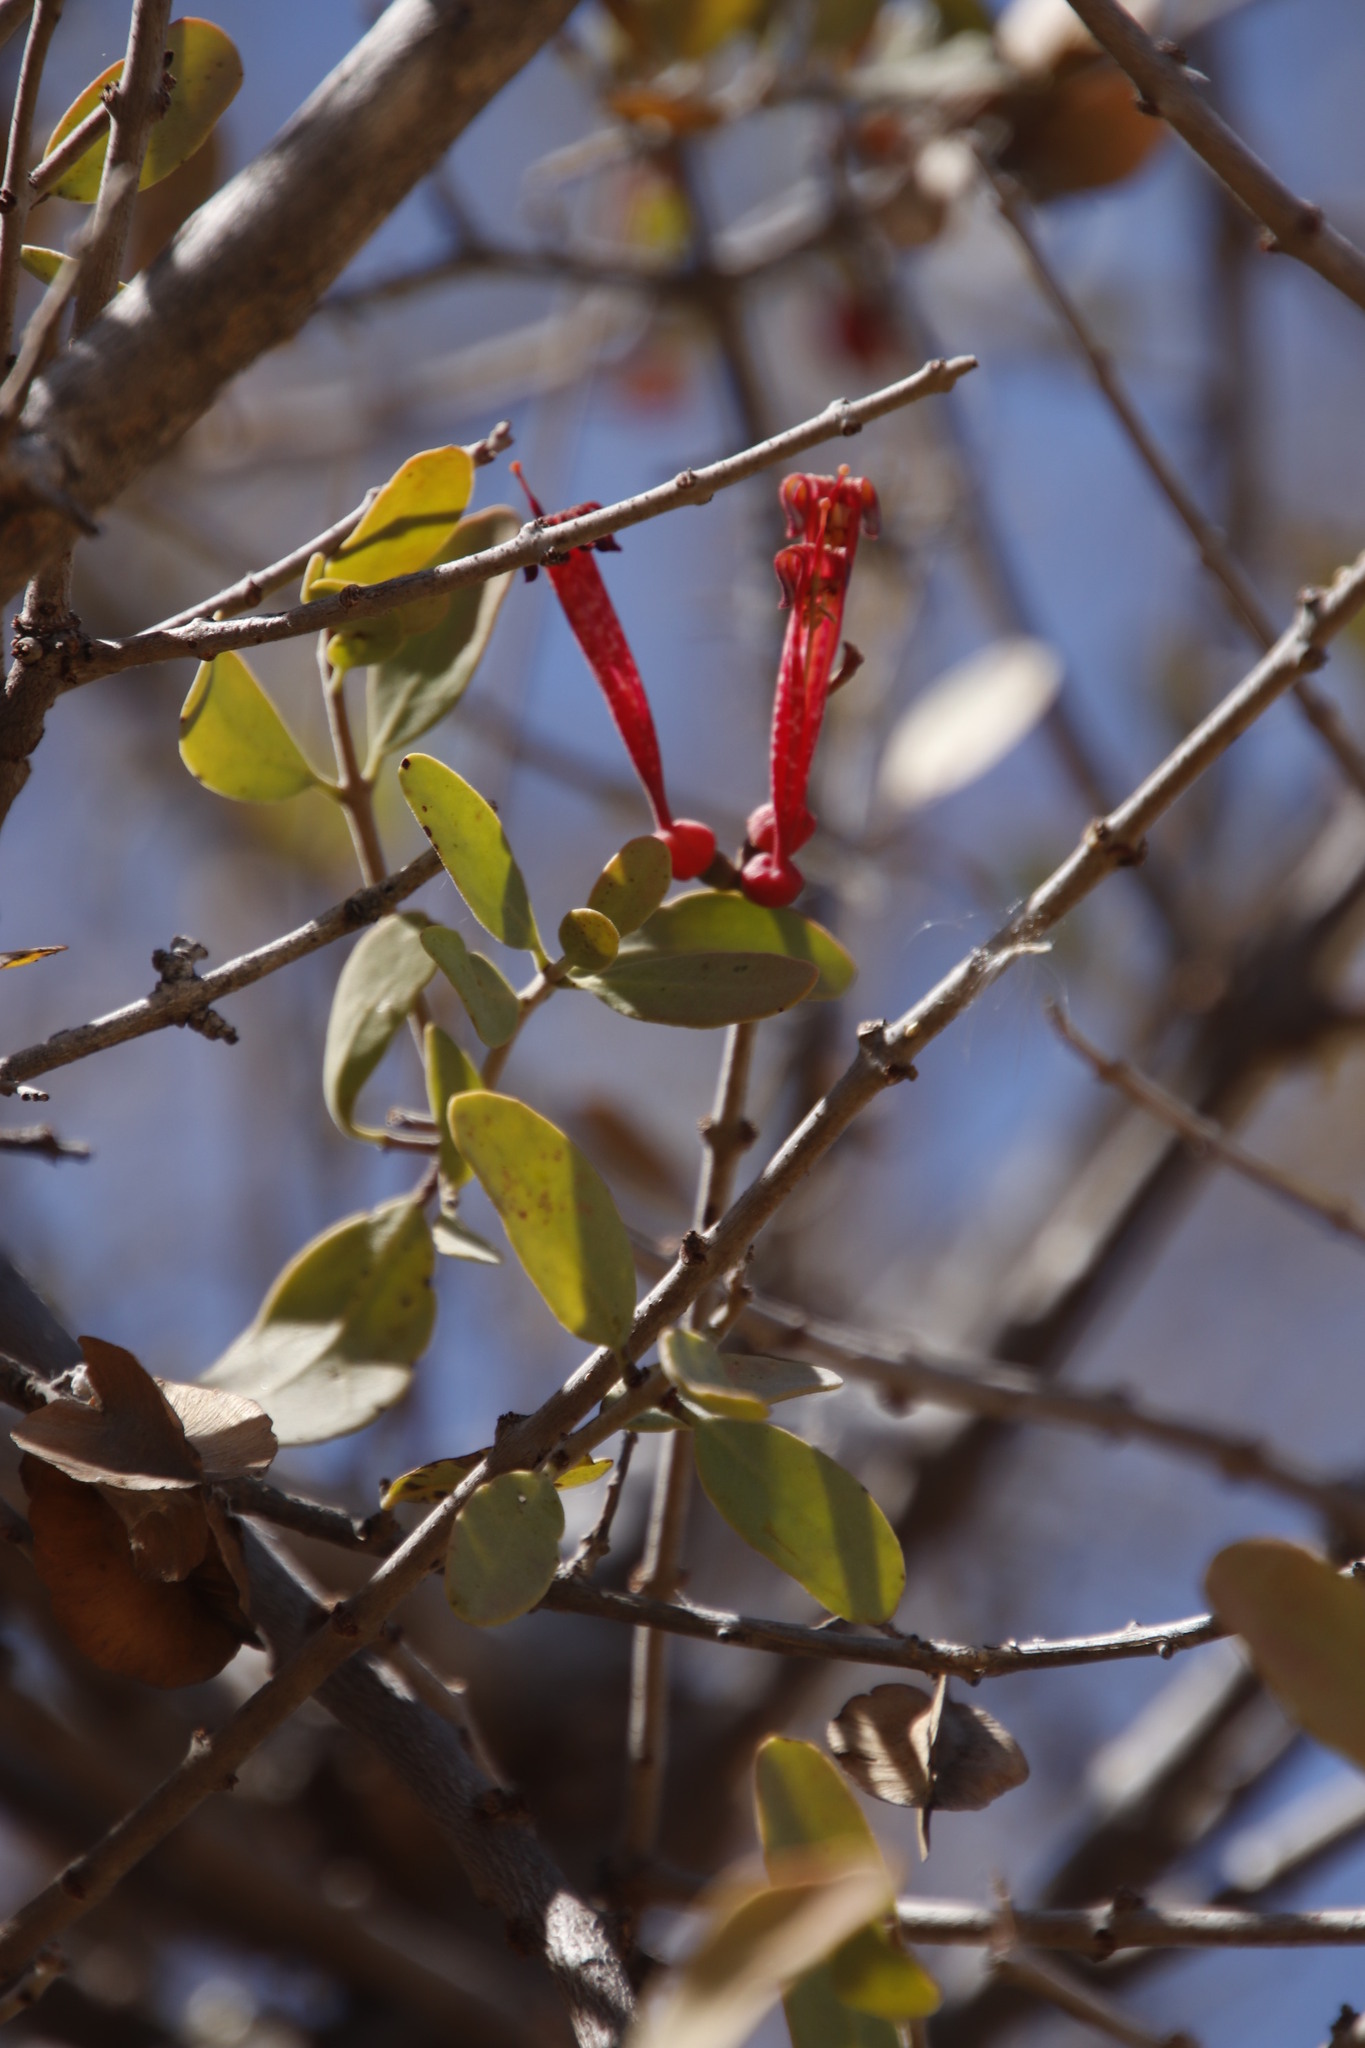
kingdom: Plantae
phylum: Tracheophyta
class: Magnoliopsida
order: Santalales
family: Loranthaceae
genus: Tapinanthus
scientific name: Tapinanthus oleifolius
